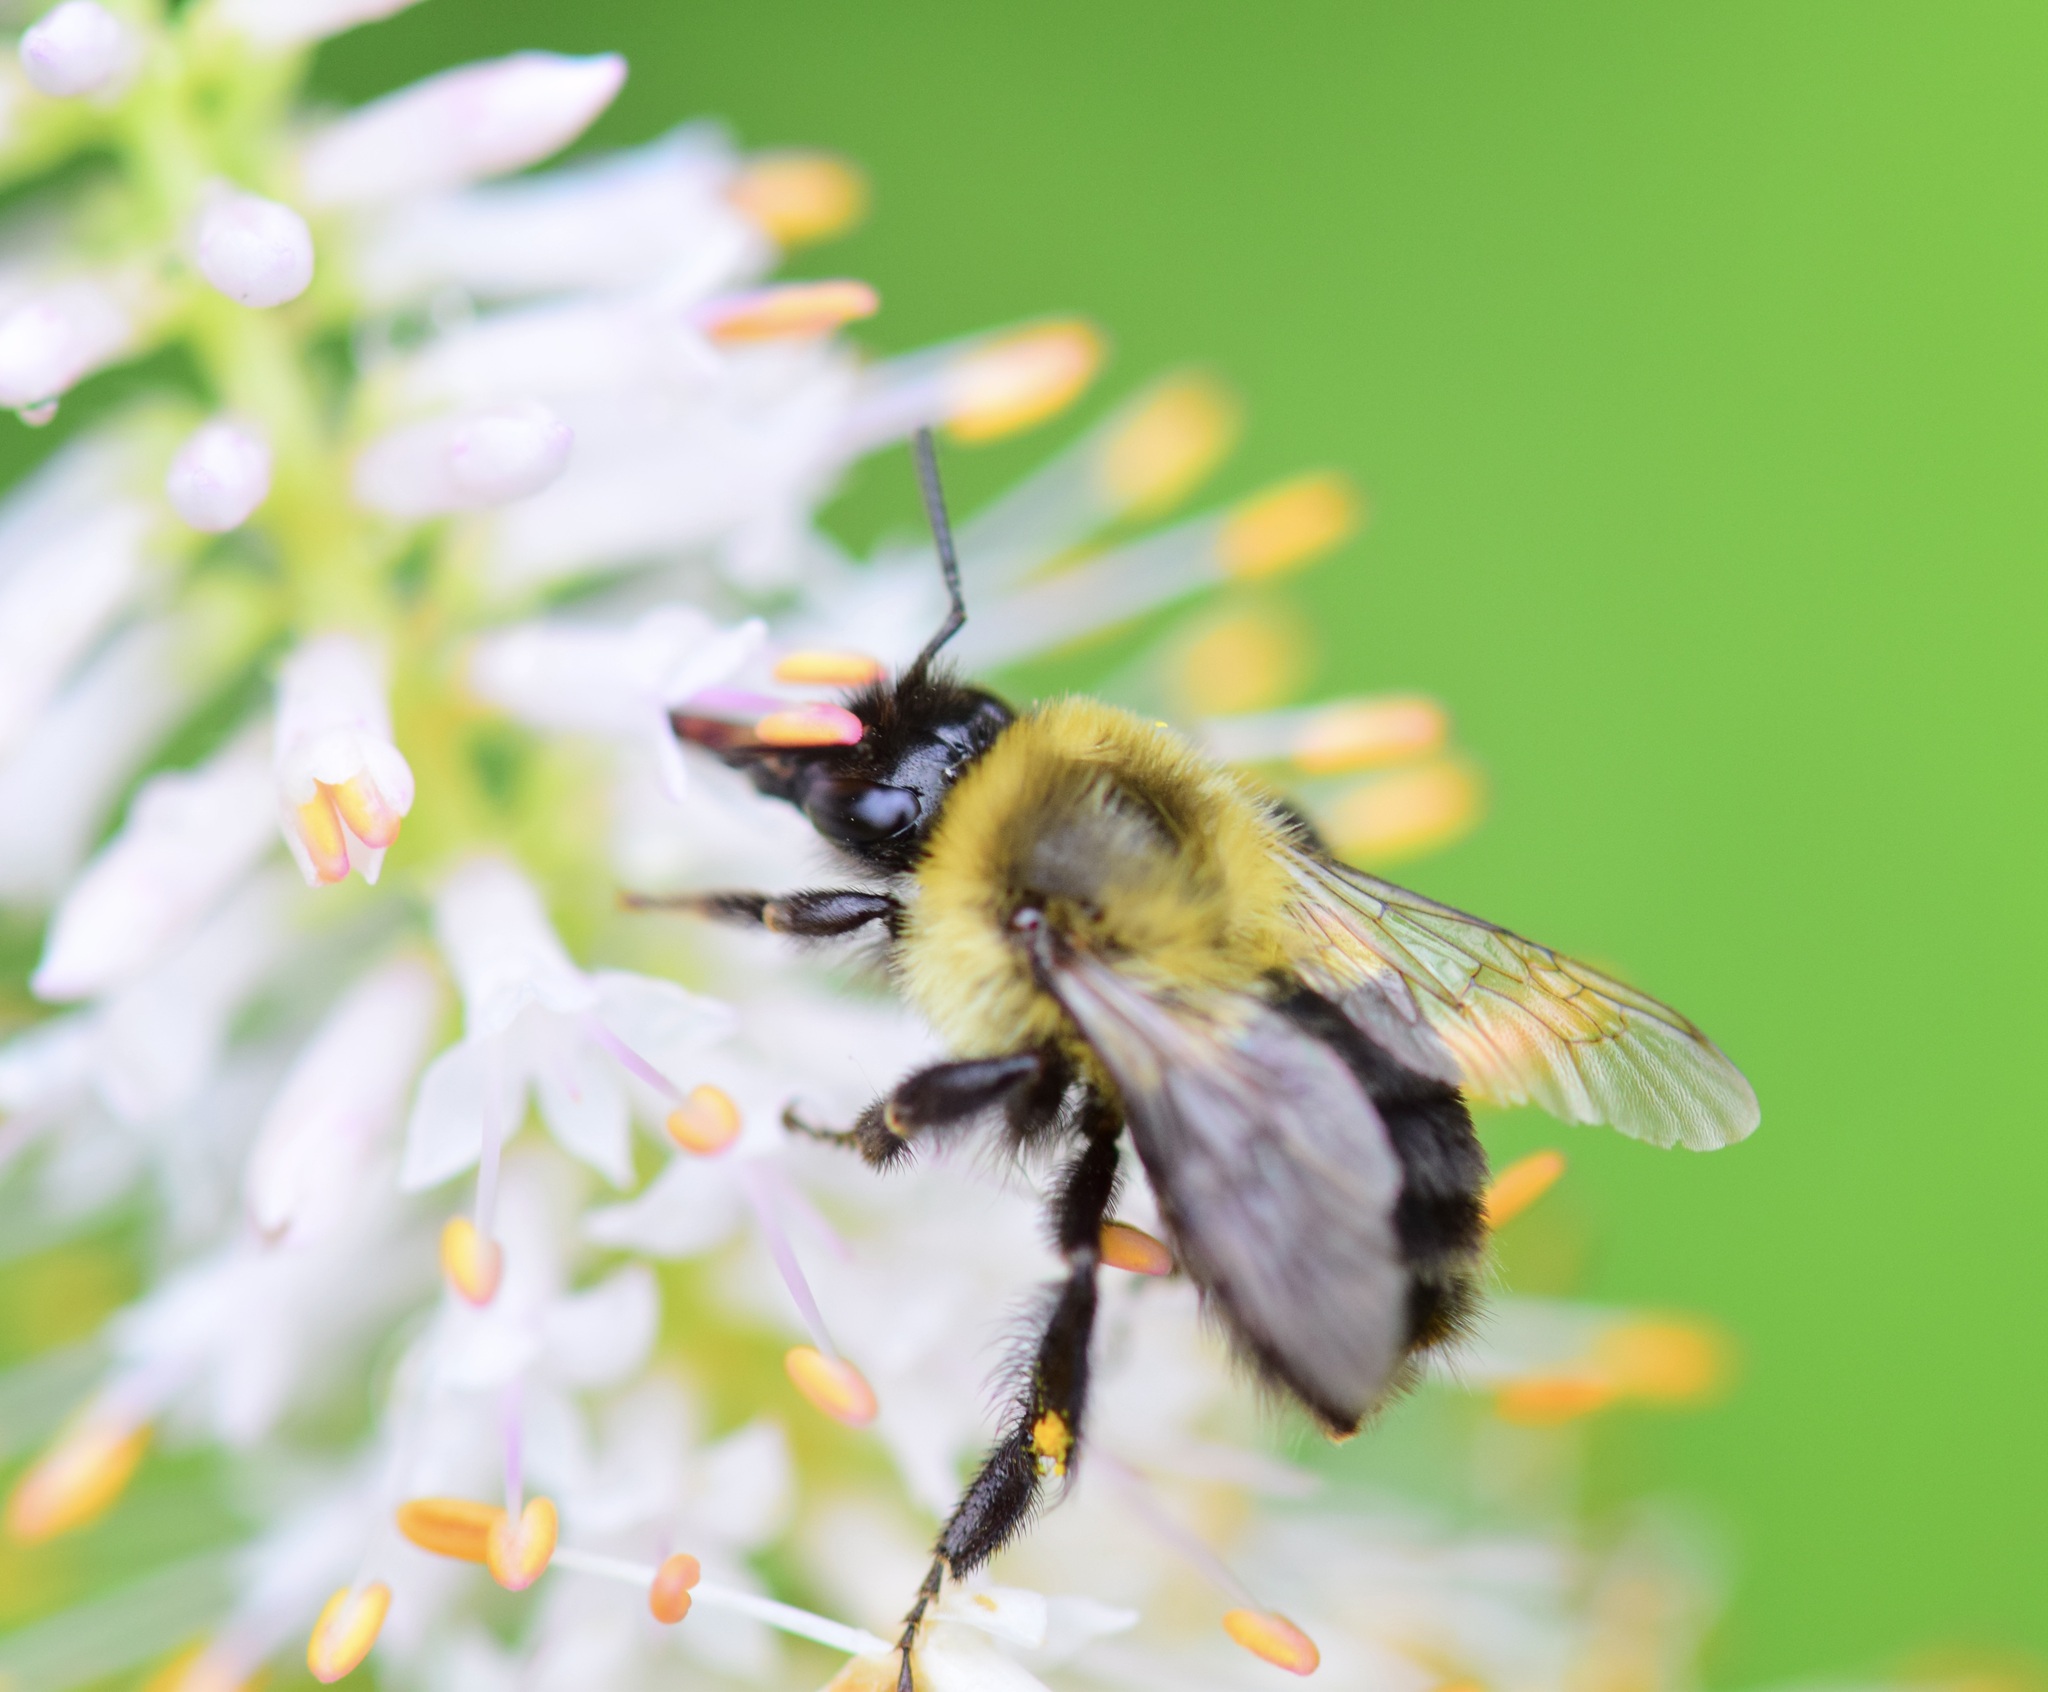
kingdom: Animalia
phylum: Arthropoda
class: Insecta
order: Hymenoptera
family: Apidae
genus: Bombus
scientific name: Bombus impatiens
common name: Common eastern bumble bee
